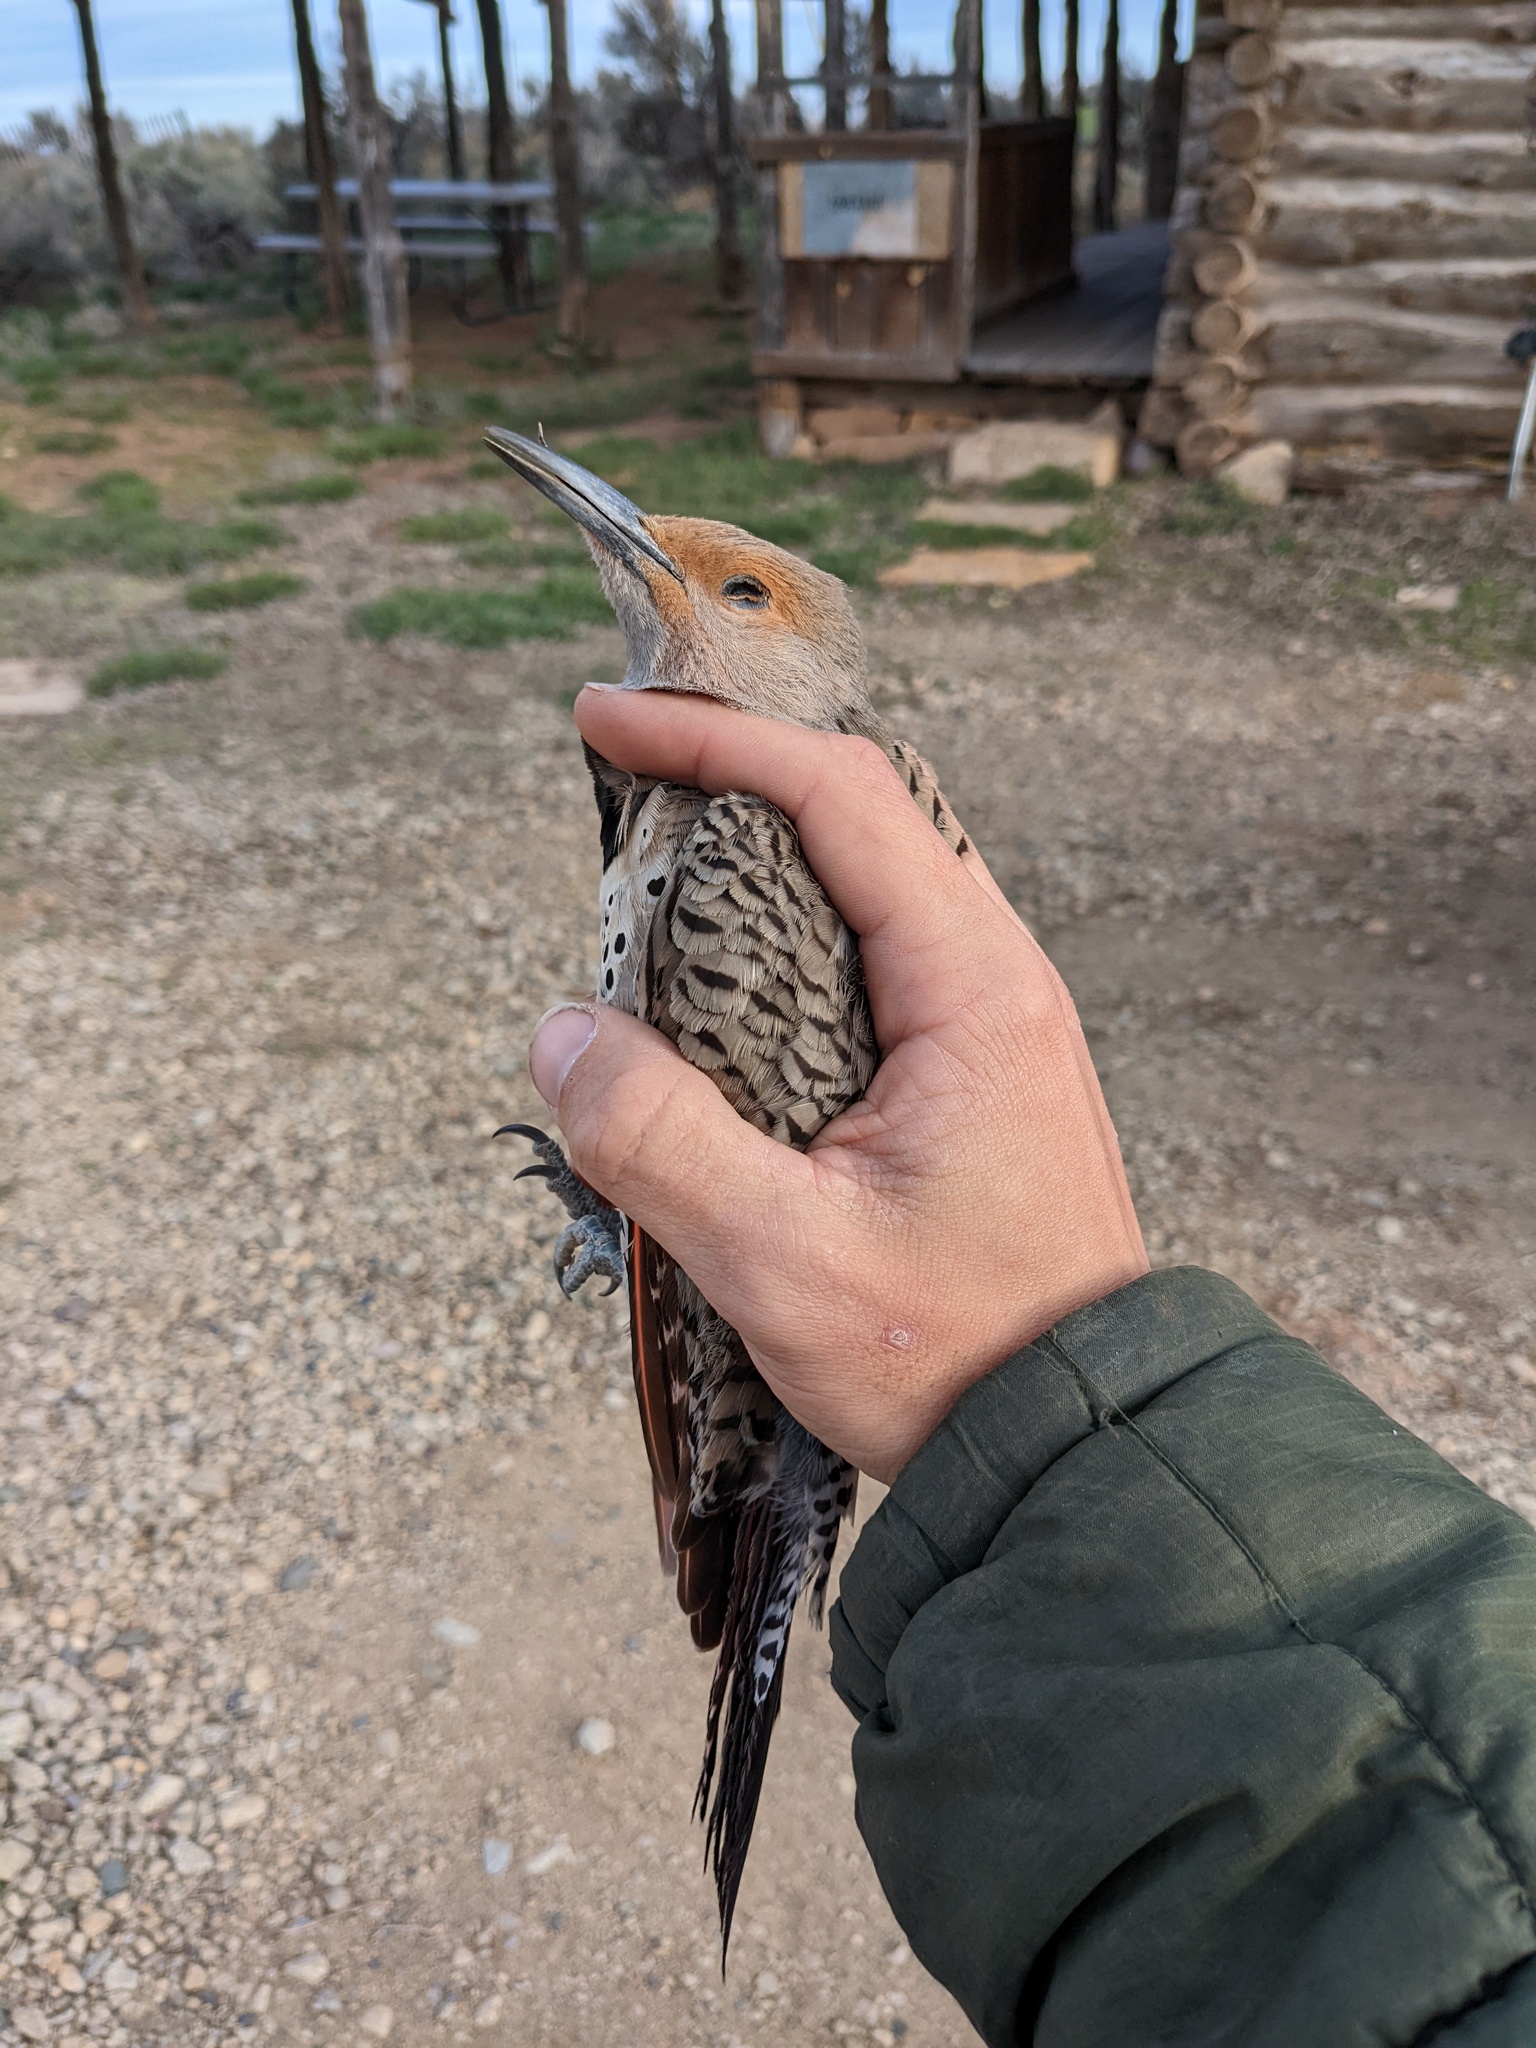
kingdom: Animalia
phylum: Chordata
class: Aves
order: Piciformes
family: Picidae
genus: Colaptes
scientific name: Colaptes auratus
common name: Northern flicker
